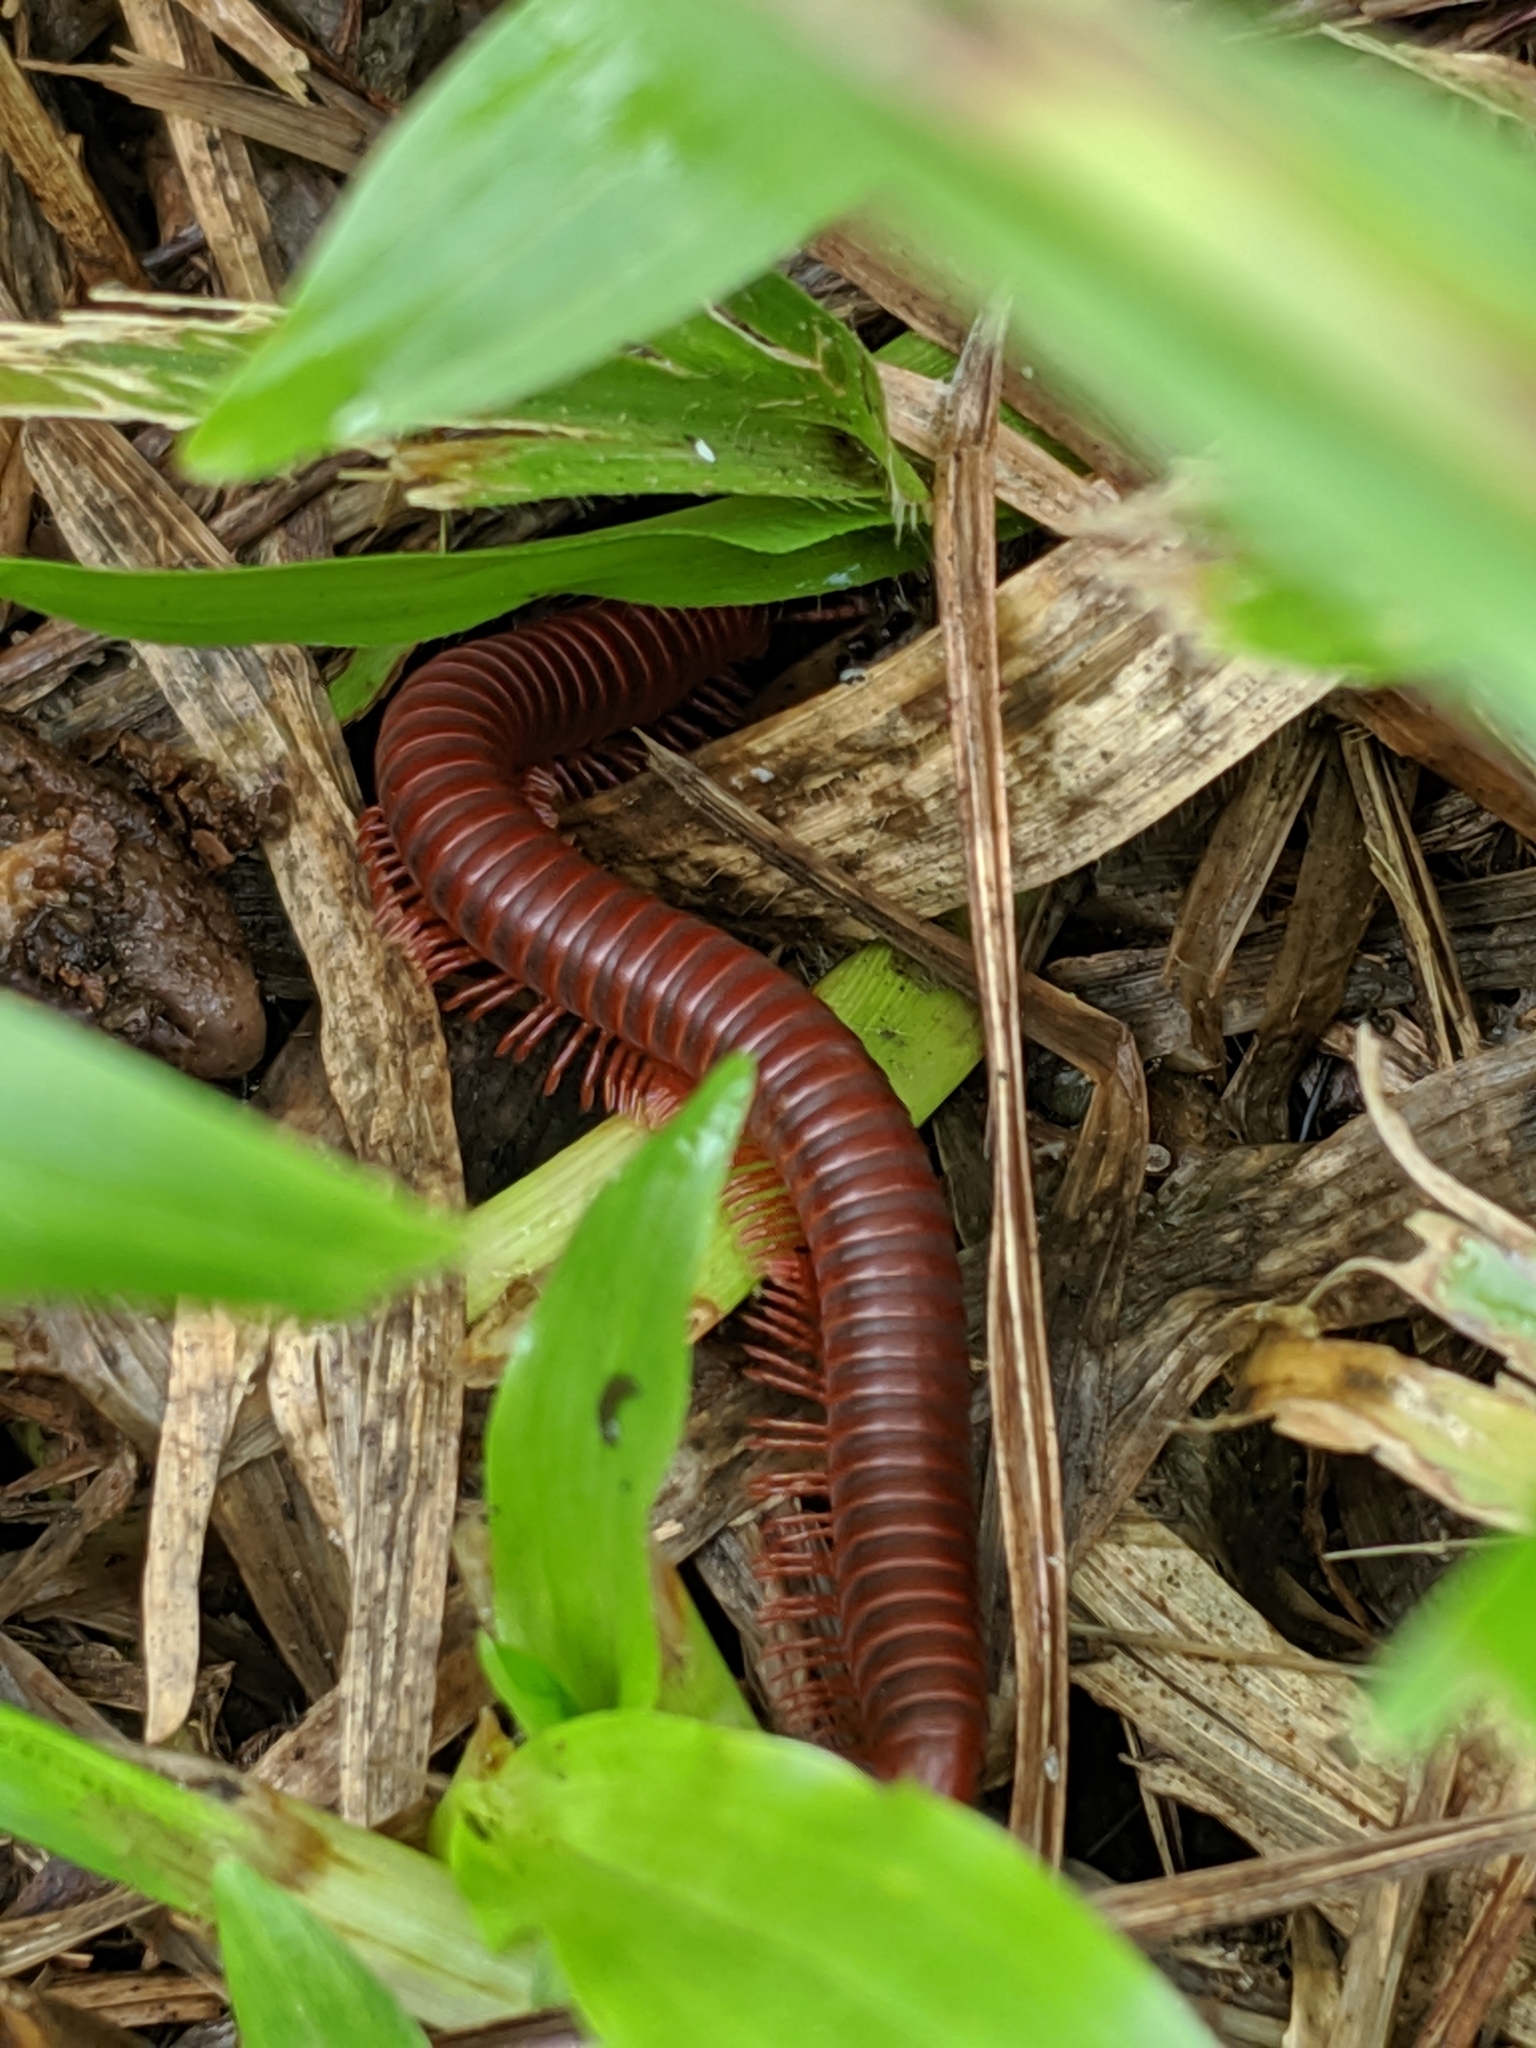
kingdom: Animalia
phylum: Arthropoda
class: Diplopoda
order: Spirobolida
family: Pachybolidae
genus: Trigoniulus
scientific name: Trigoniulus corallinus
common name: Millipede
